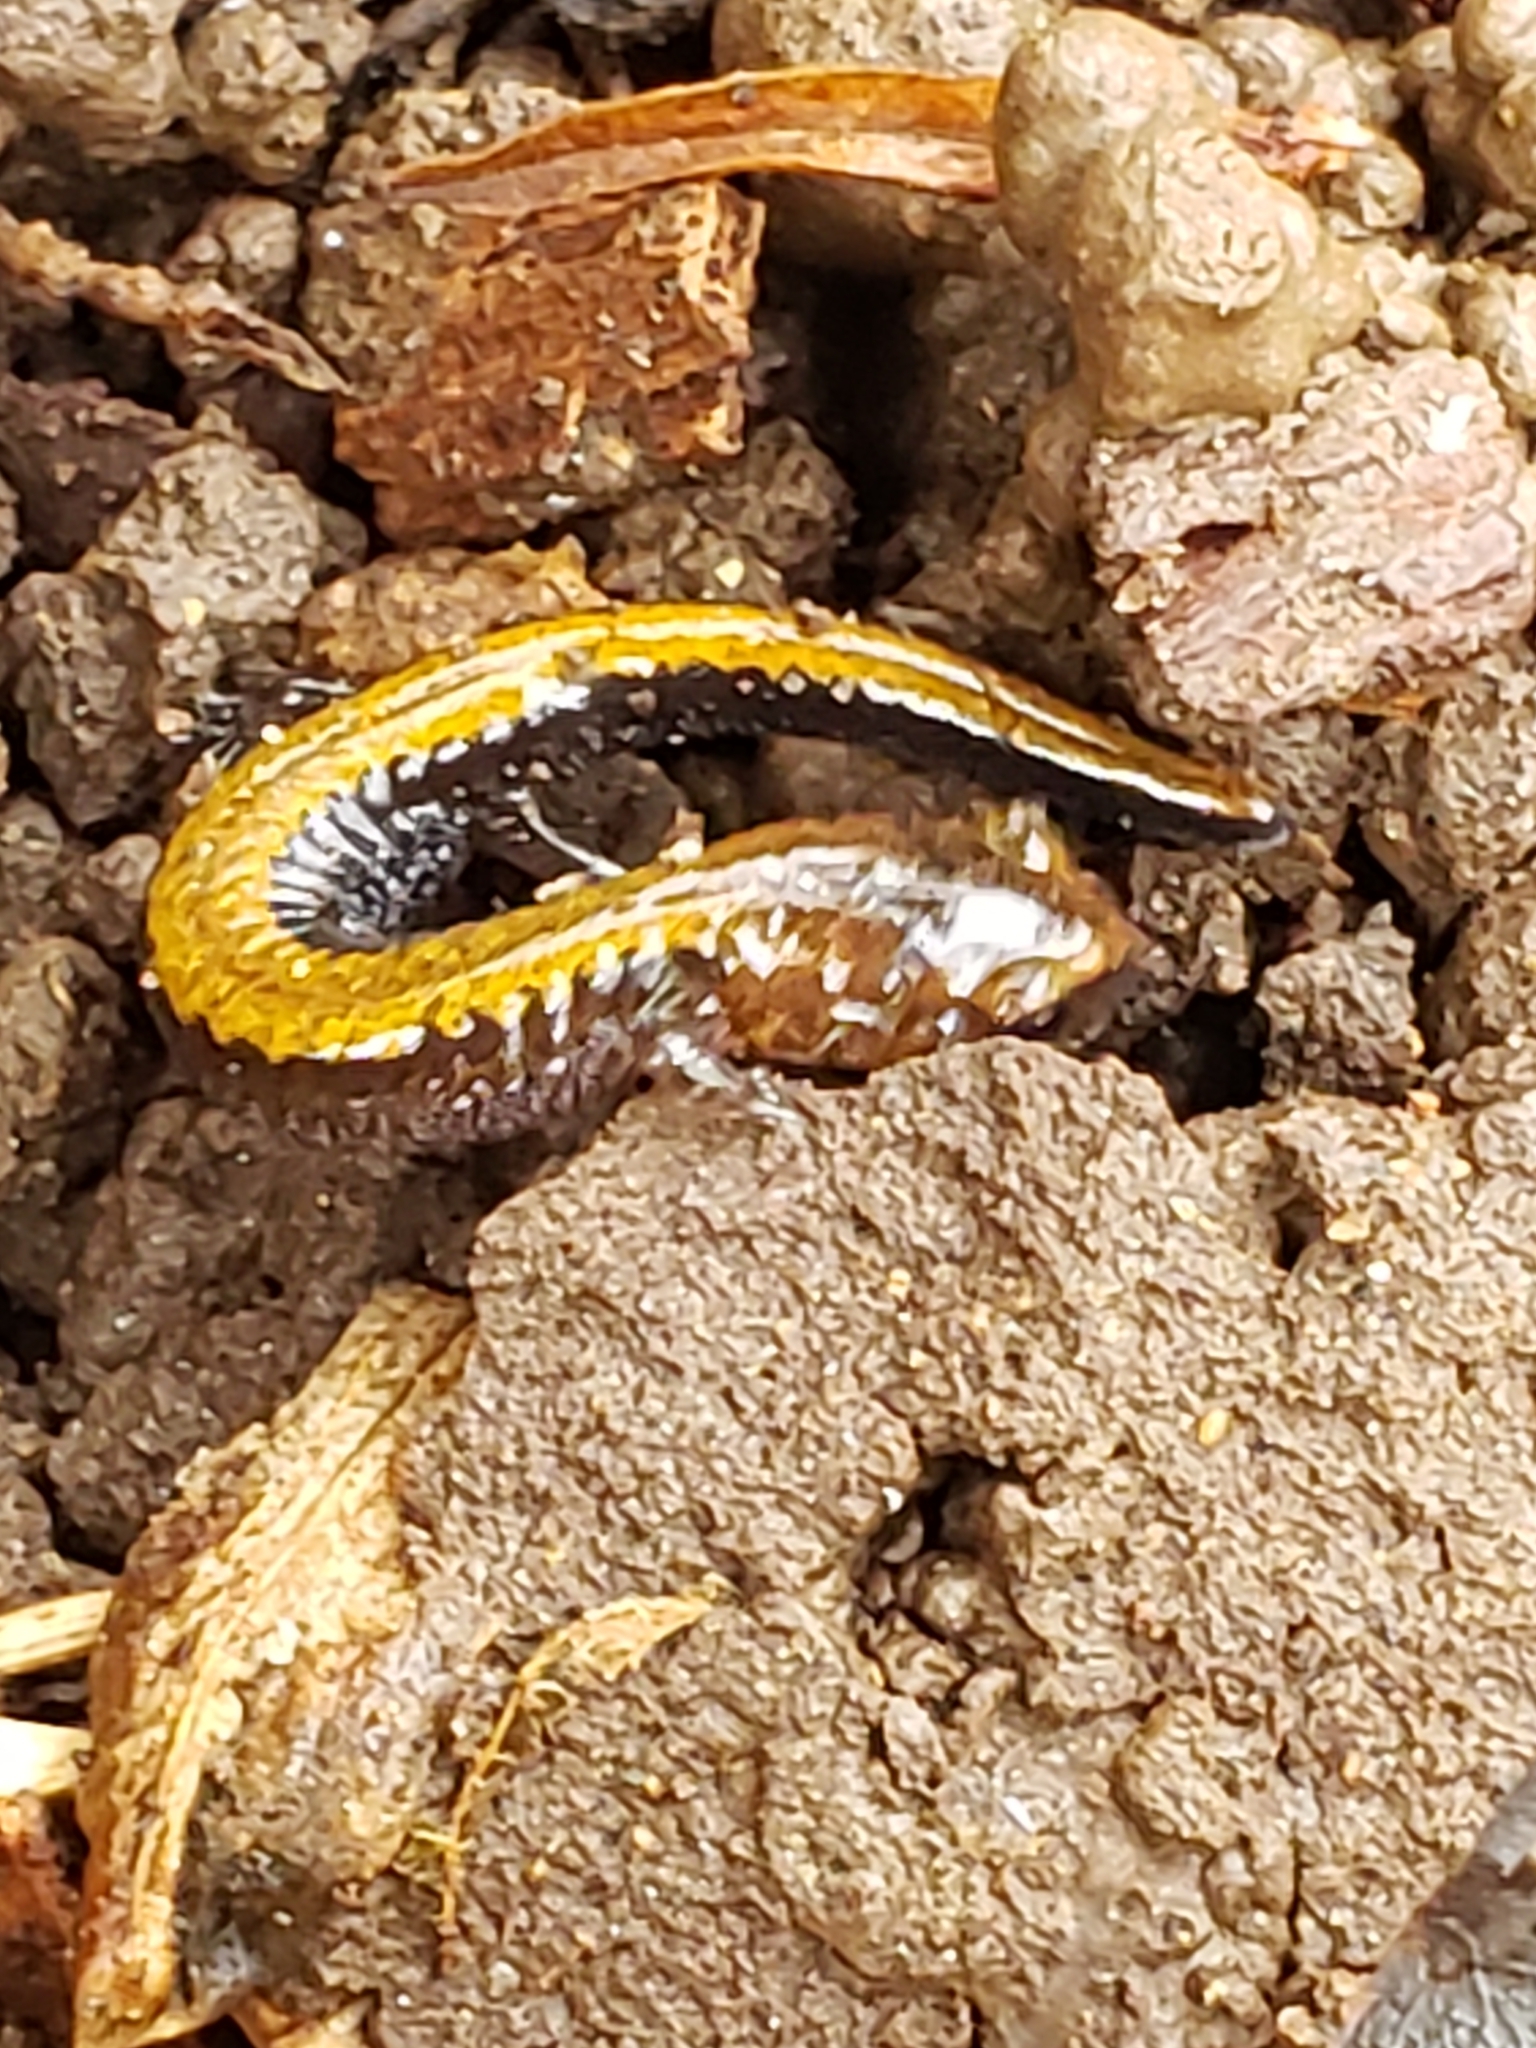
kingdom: Animalia
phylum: Chordata
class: Amphibia
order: Caudata
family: Plethodontidae
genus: Plethodon
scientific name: Plethodon cinereus
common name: Redback salamander
